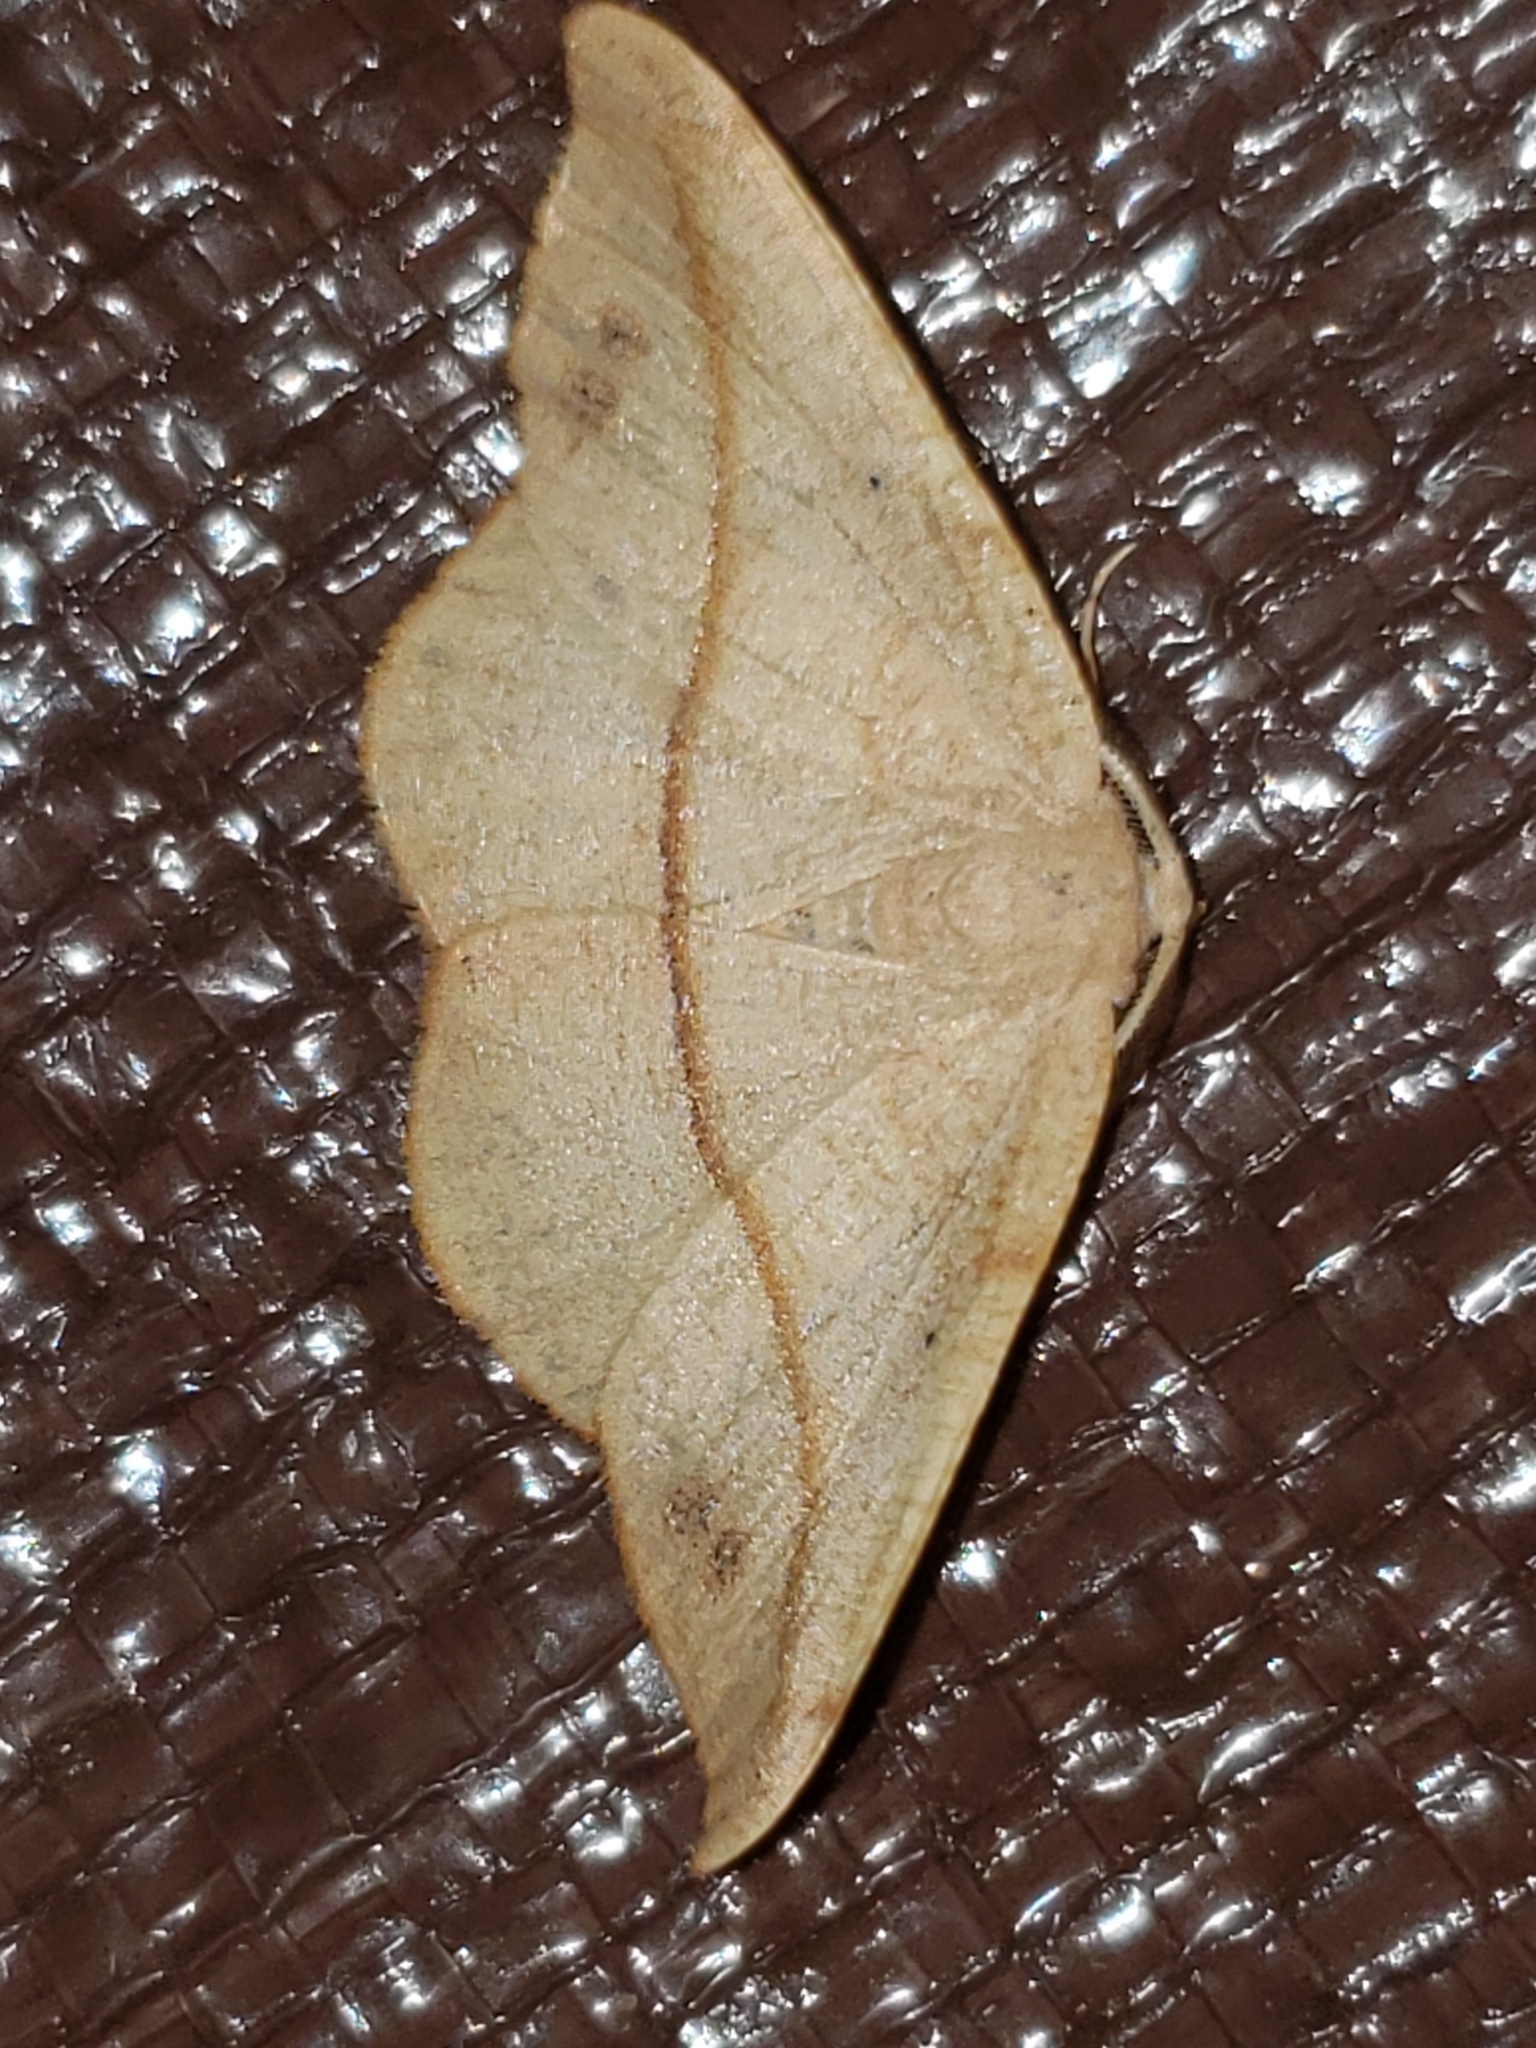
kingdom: Animalia
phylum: Arthropoda
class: Insecta
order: Lepidoptera
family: Geometridae
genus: Patalene
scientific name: Patalene olyzonaria
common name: Juniper geometer moth
